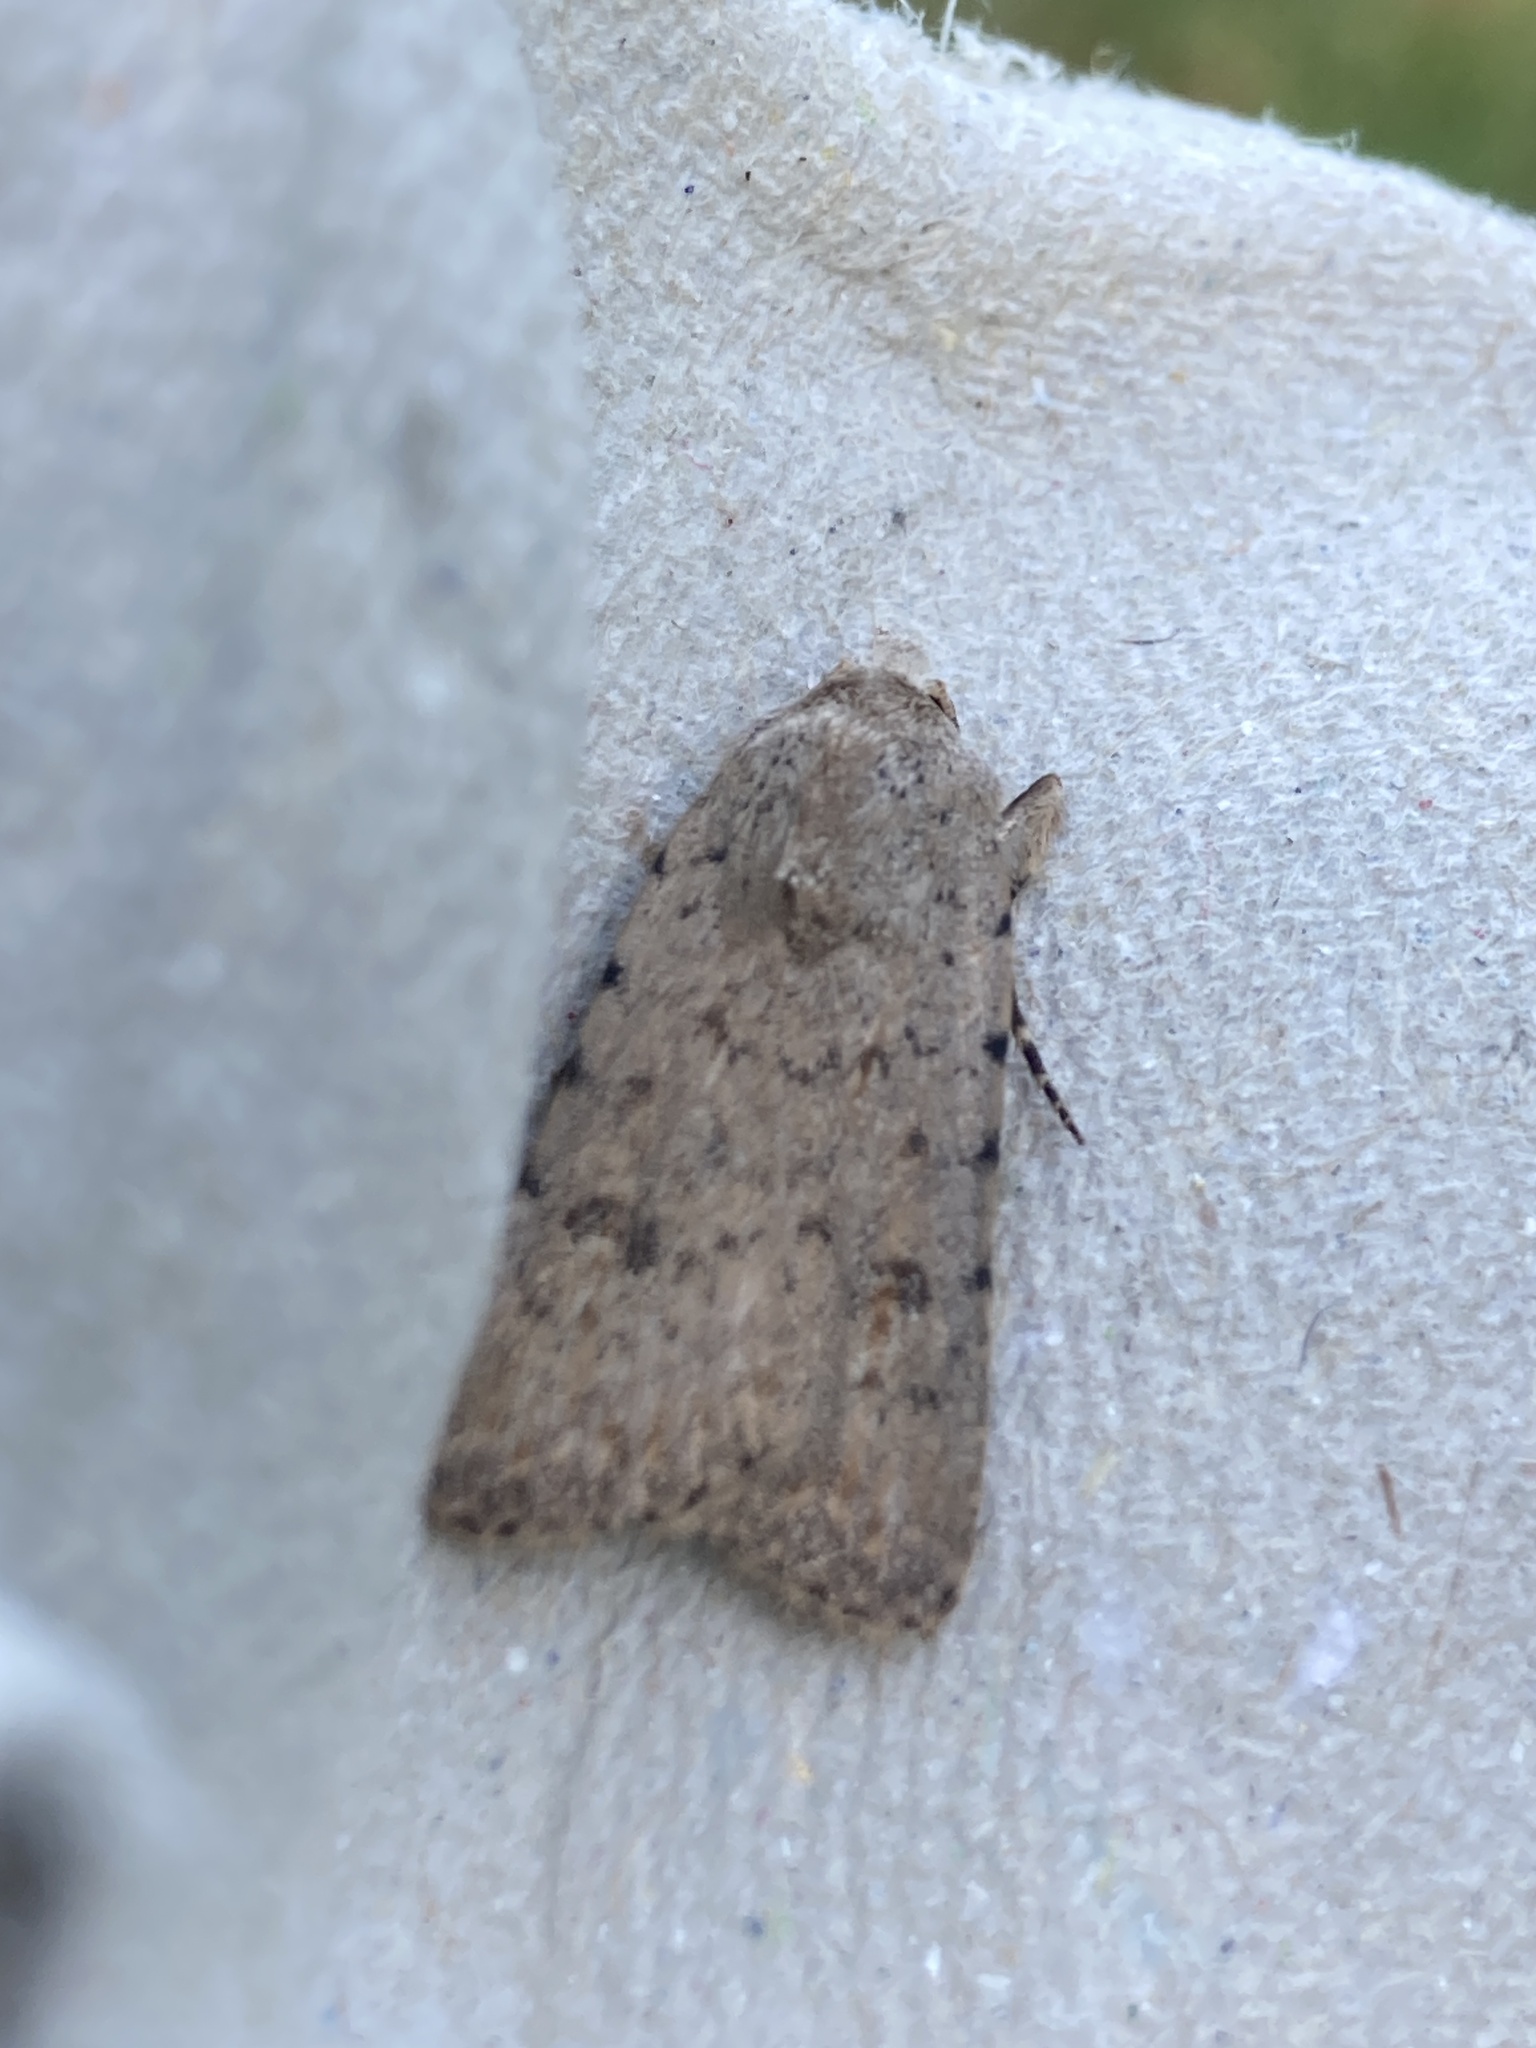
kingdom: Animalia
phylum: Arthropoda
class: Insecta
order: Lepidoptera
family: Noctuidae
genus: Caradrina
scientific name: Caradrina clavipalpis
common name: Pale mottled willow
